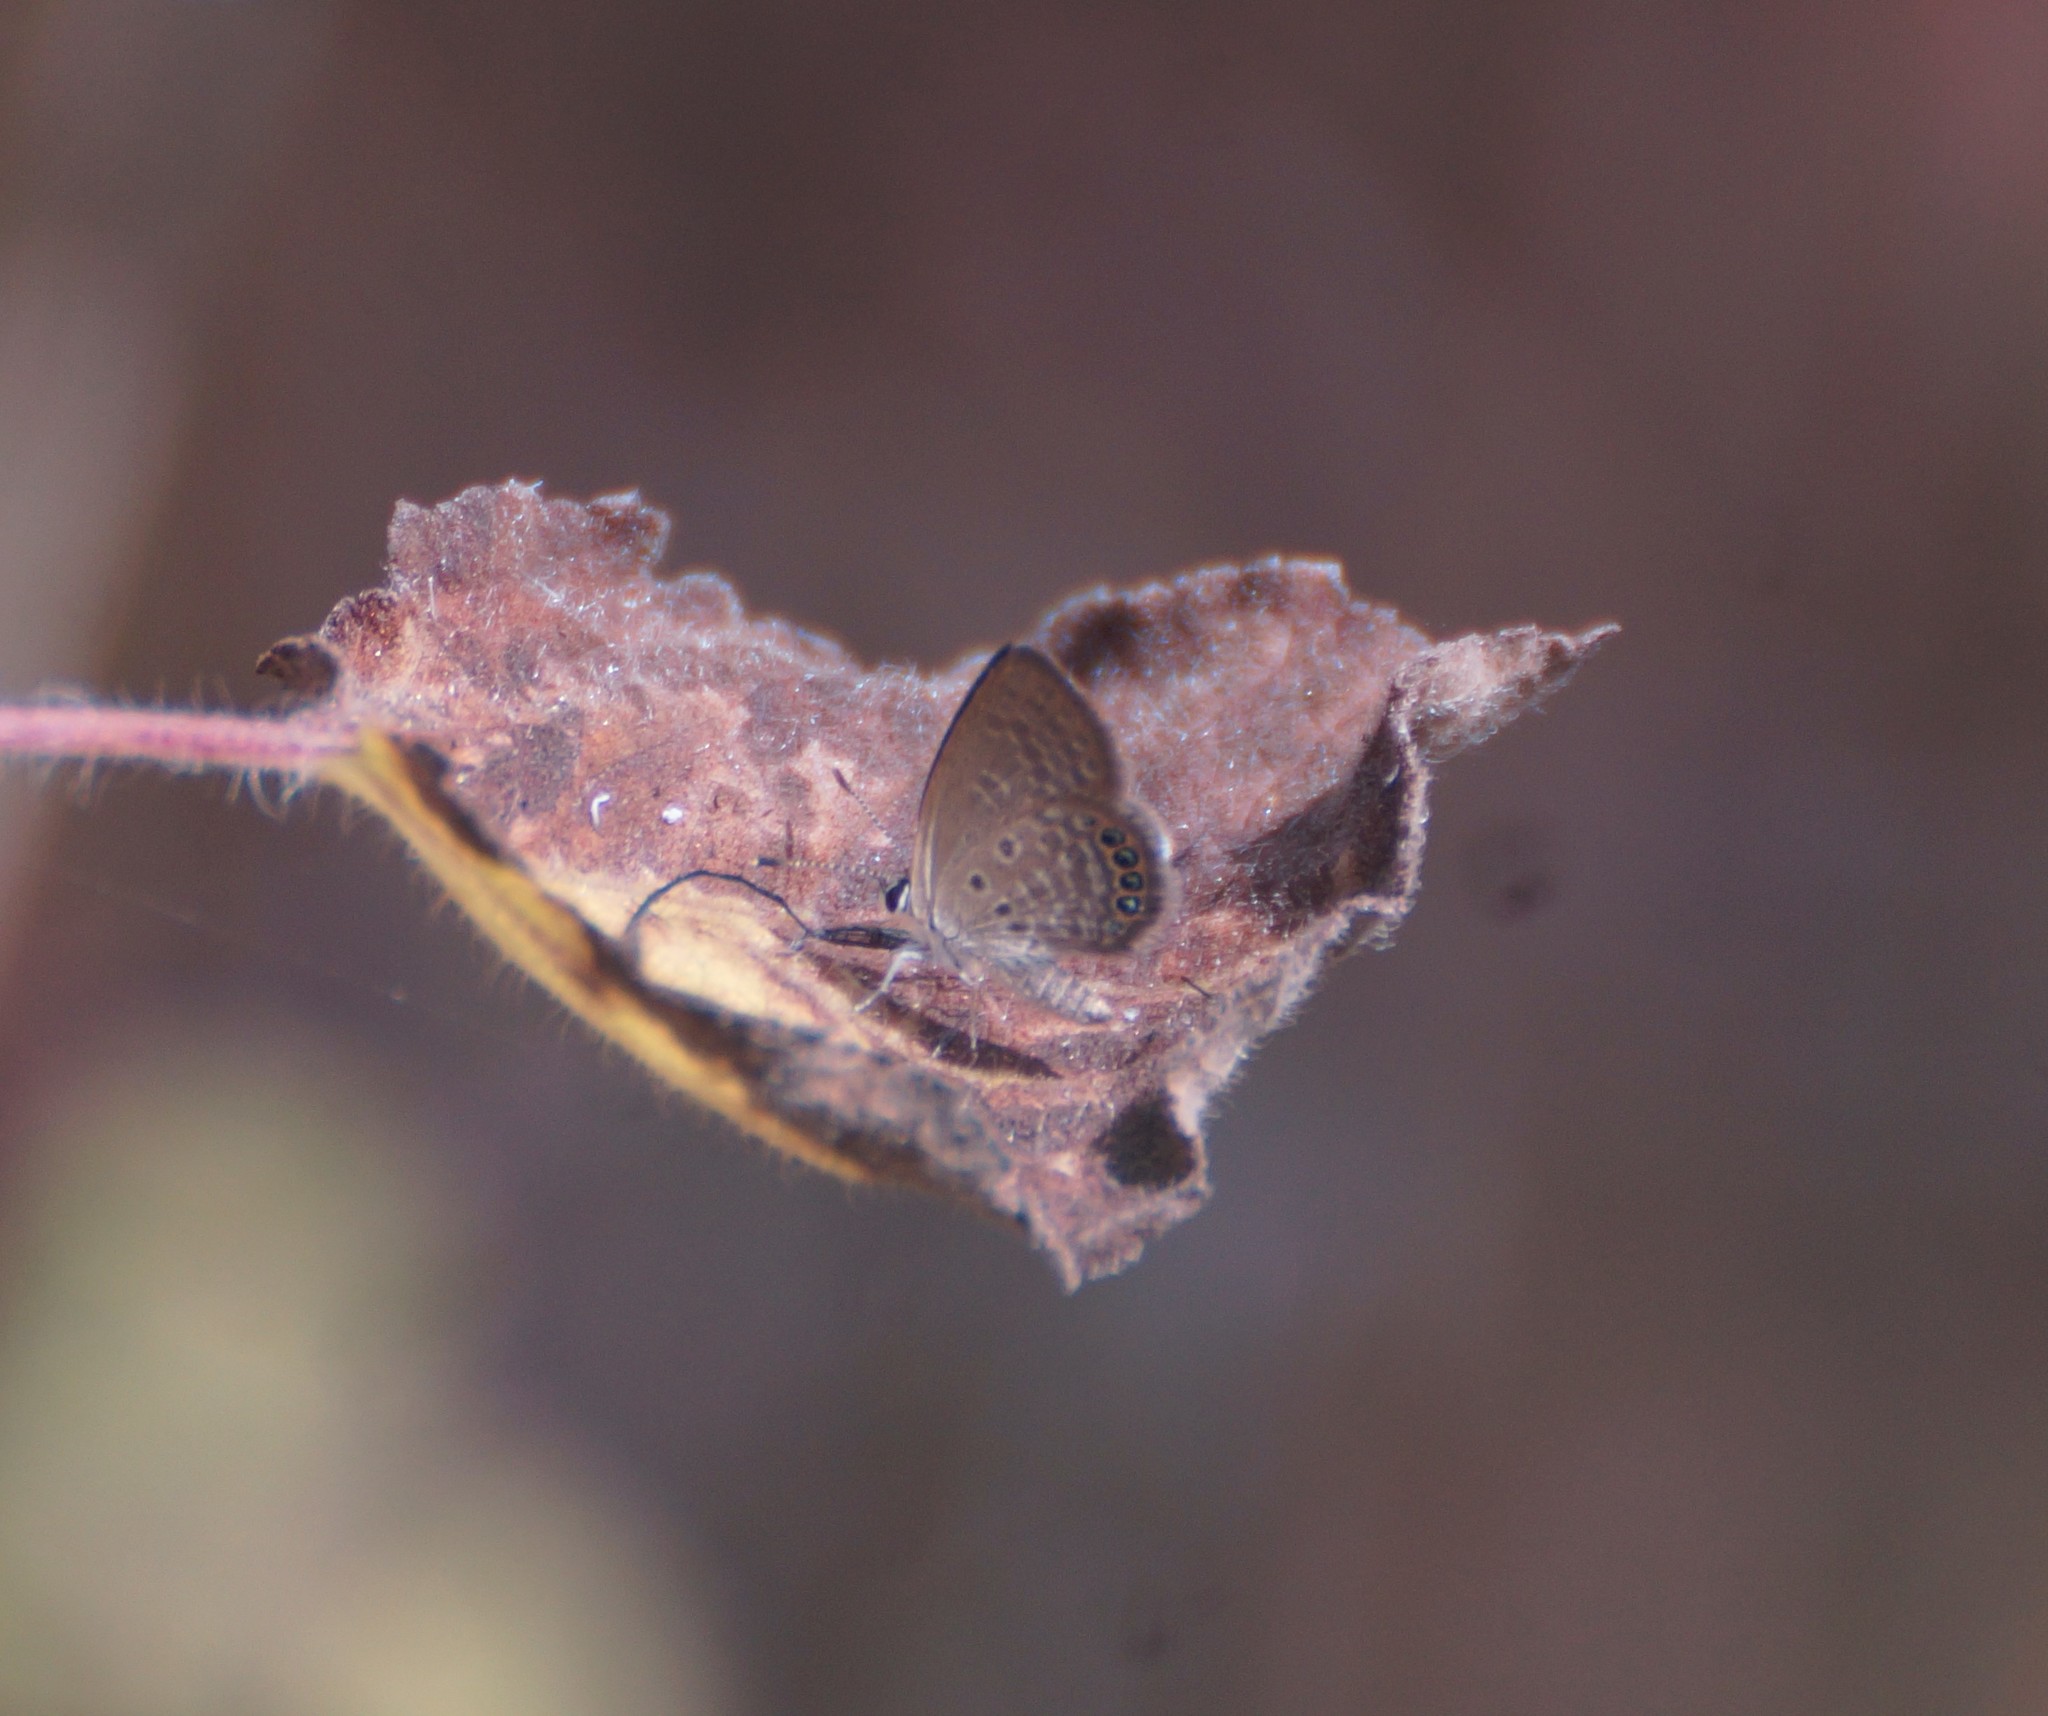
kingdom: Animalia
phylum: Arthropoda
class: Insecta
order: Lepidoptera
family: Lycaenidae
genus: Freyeria
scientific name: Freyeria putli
